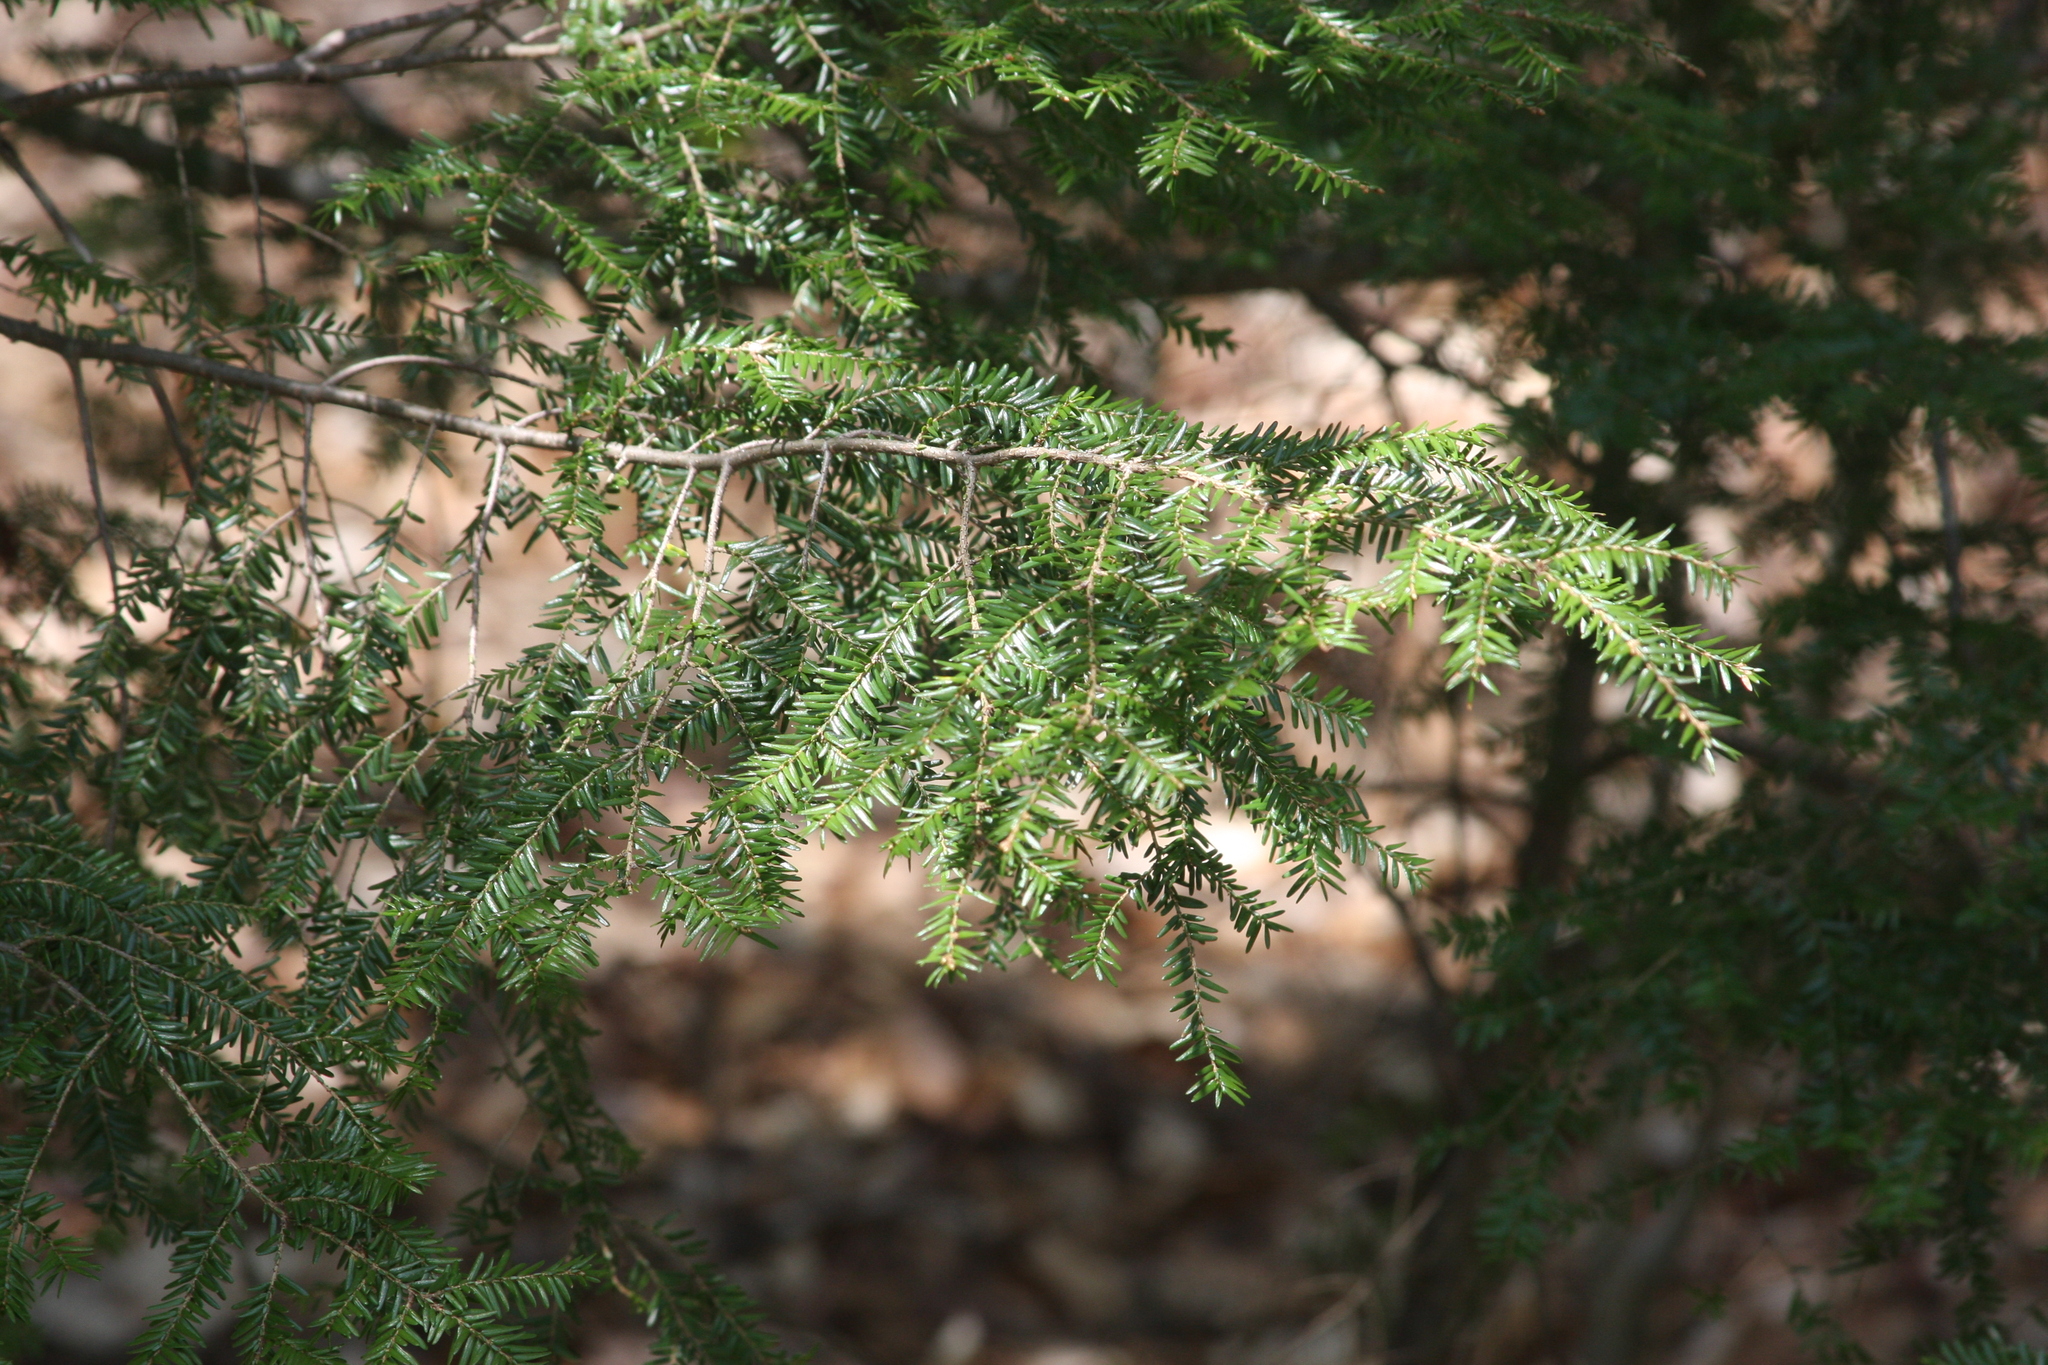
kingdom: Plantae
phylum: Tracheophyta
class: Pinopsida
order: Pinales
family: Pinaceae
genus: Tsuga
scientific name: Tsuga canadensis
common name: Eastern hemlock
